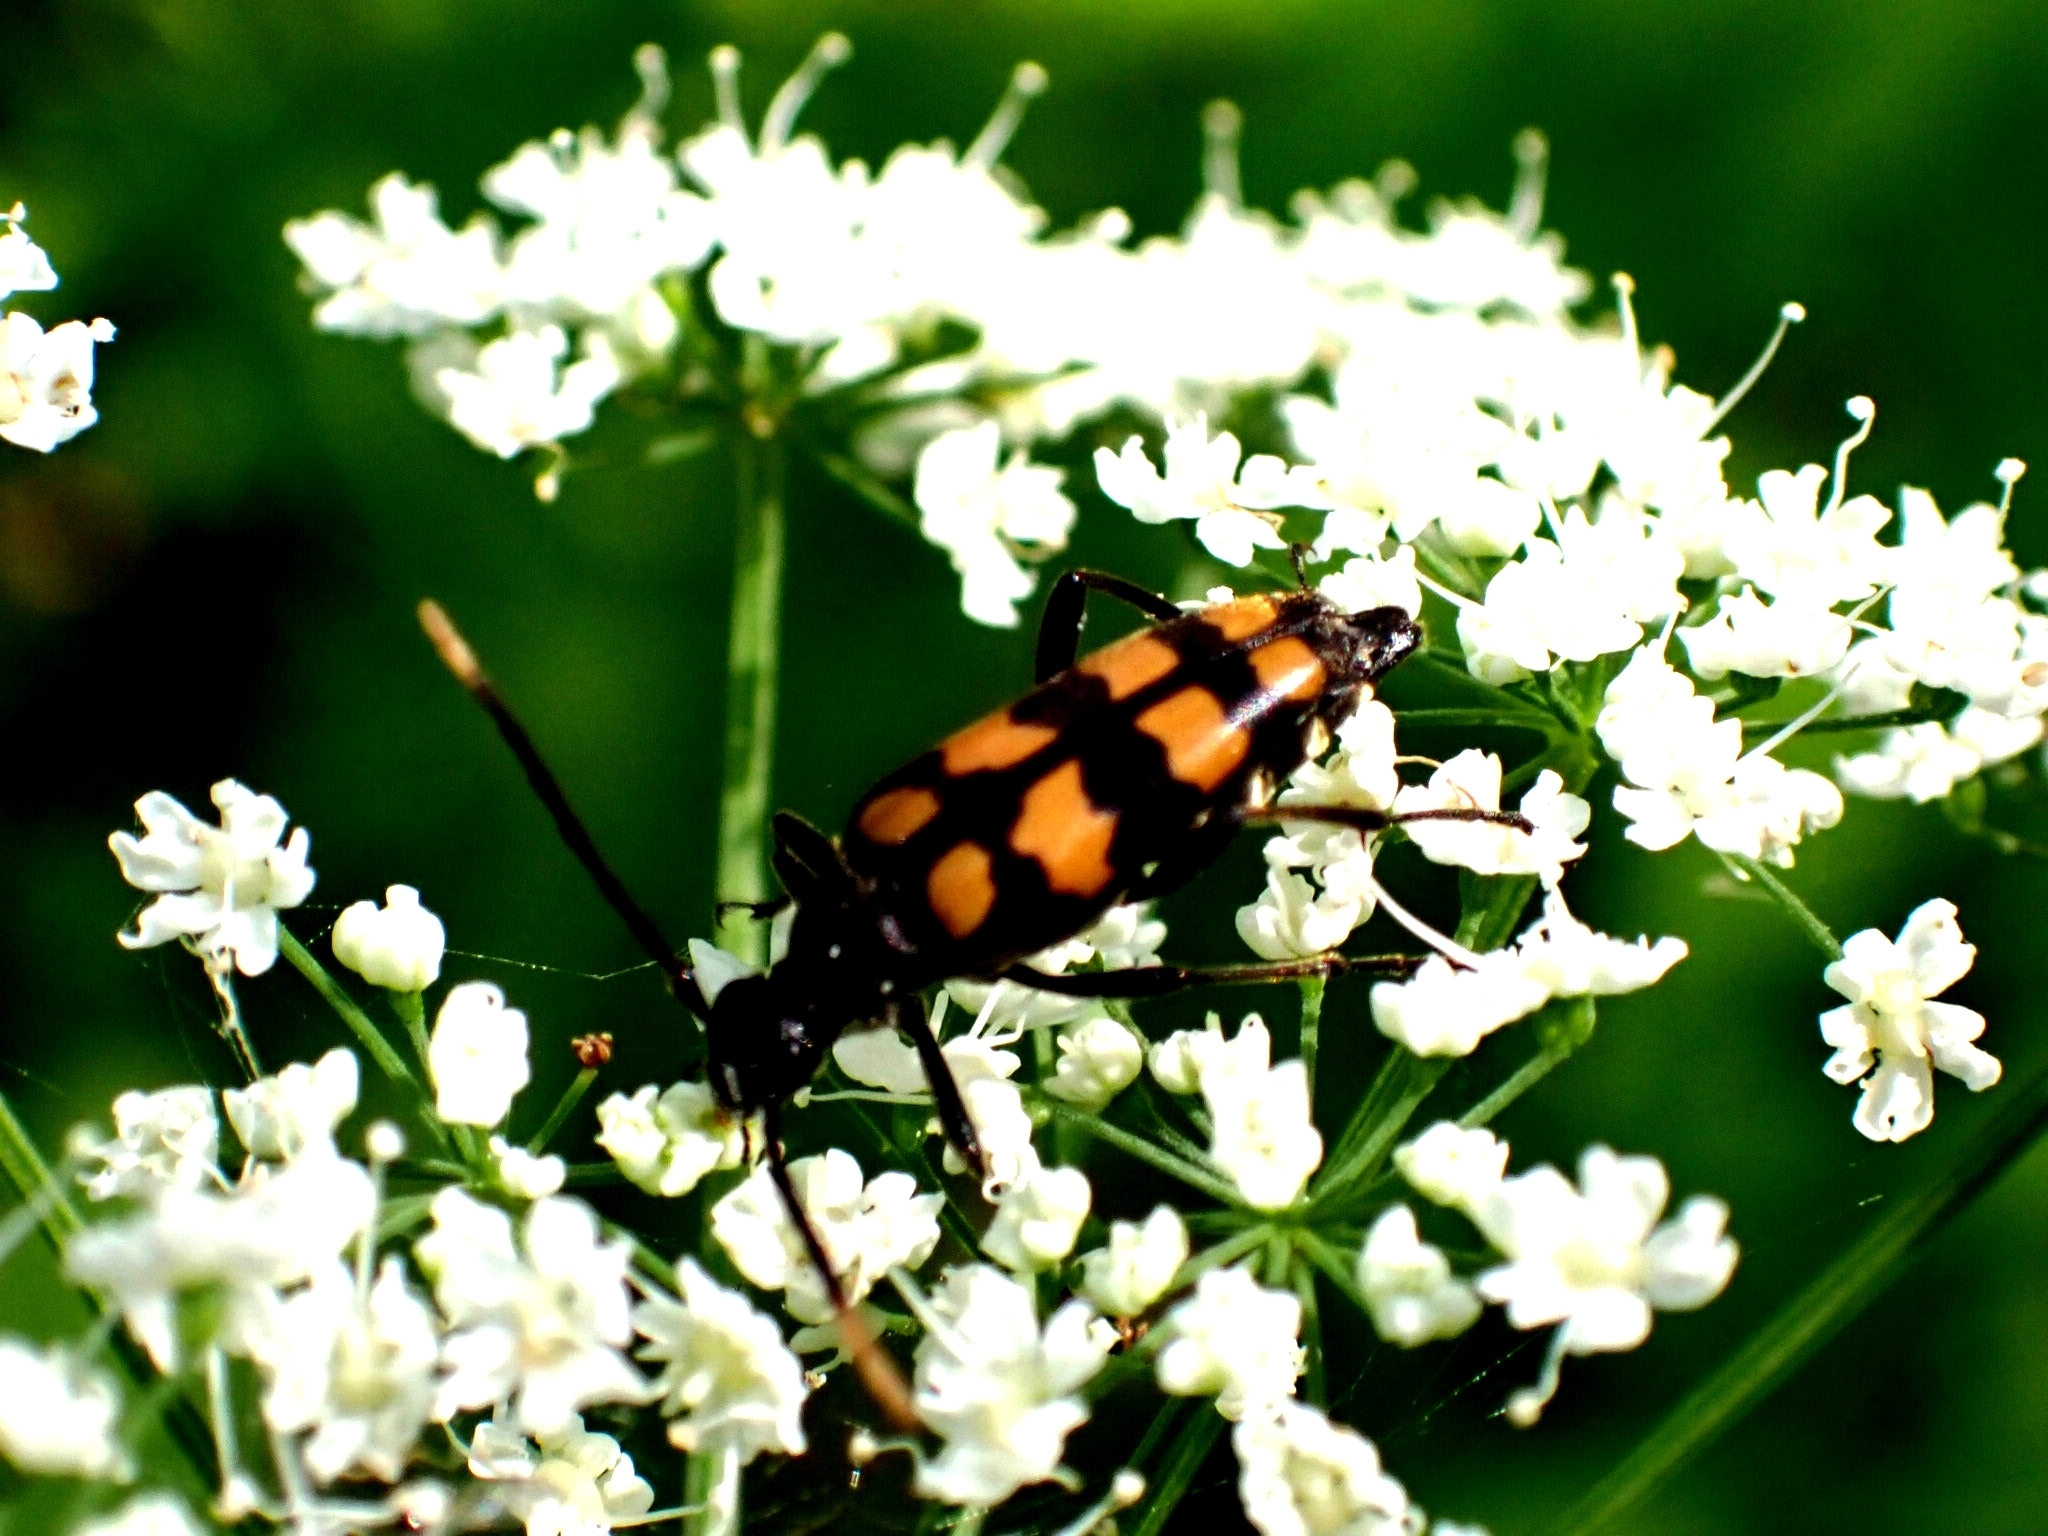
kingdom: Animalia
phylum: Arthropoda
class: Insecta
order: Coleoptera
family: Cerambycidae
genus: Leptura
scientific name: Leptura quadrifasciata
